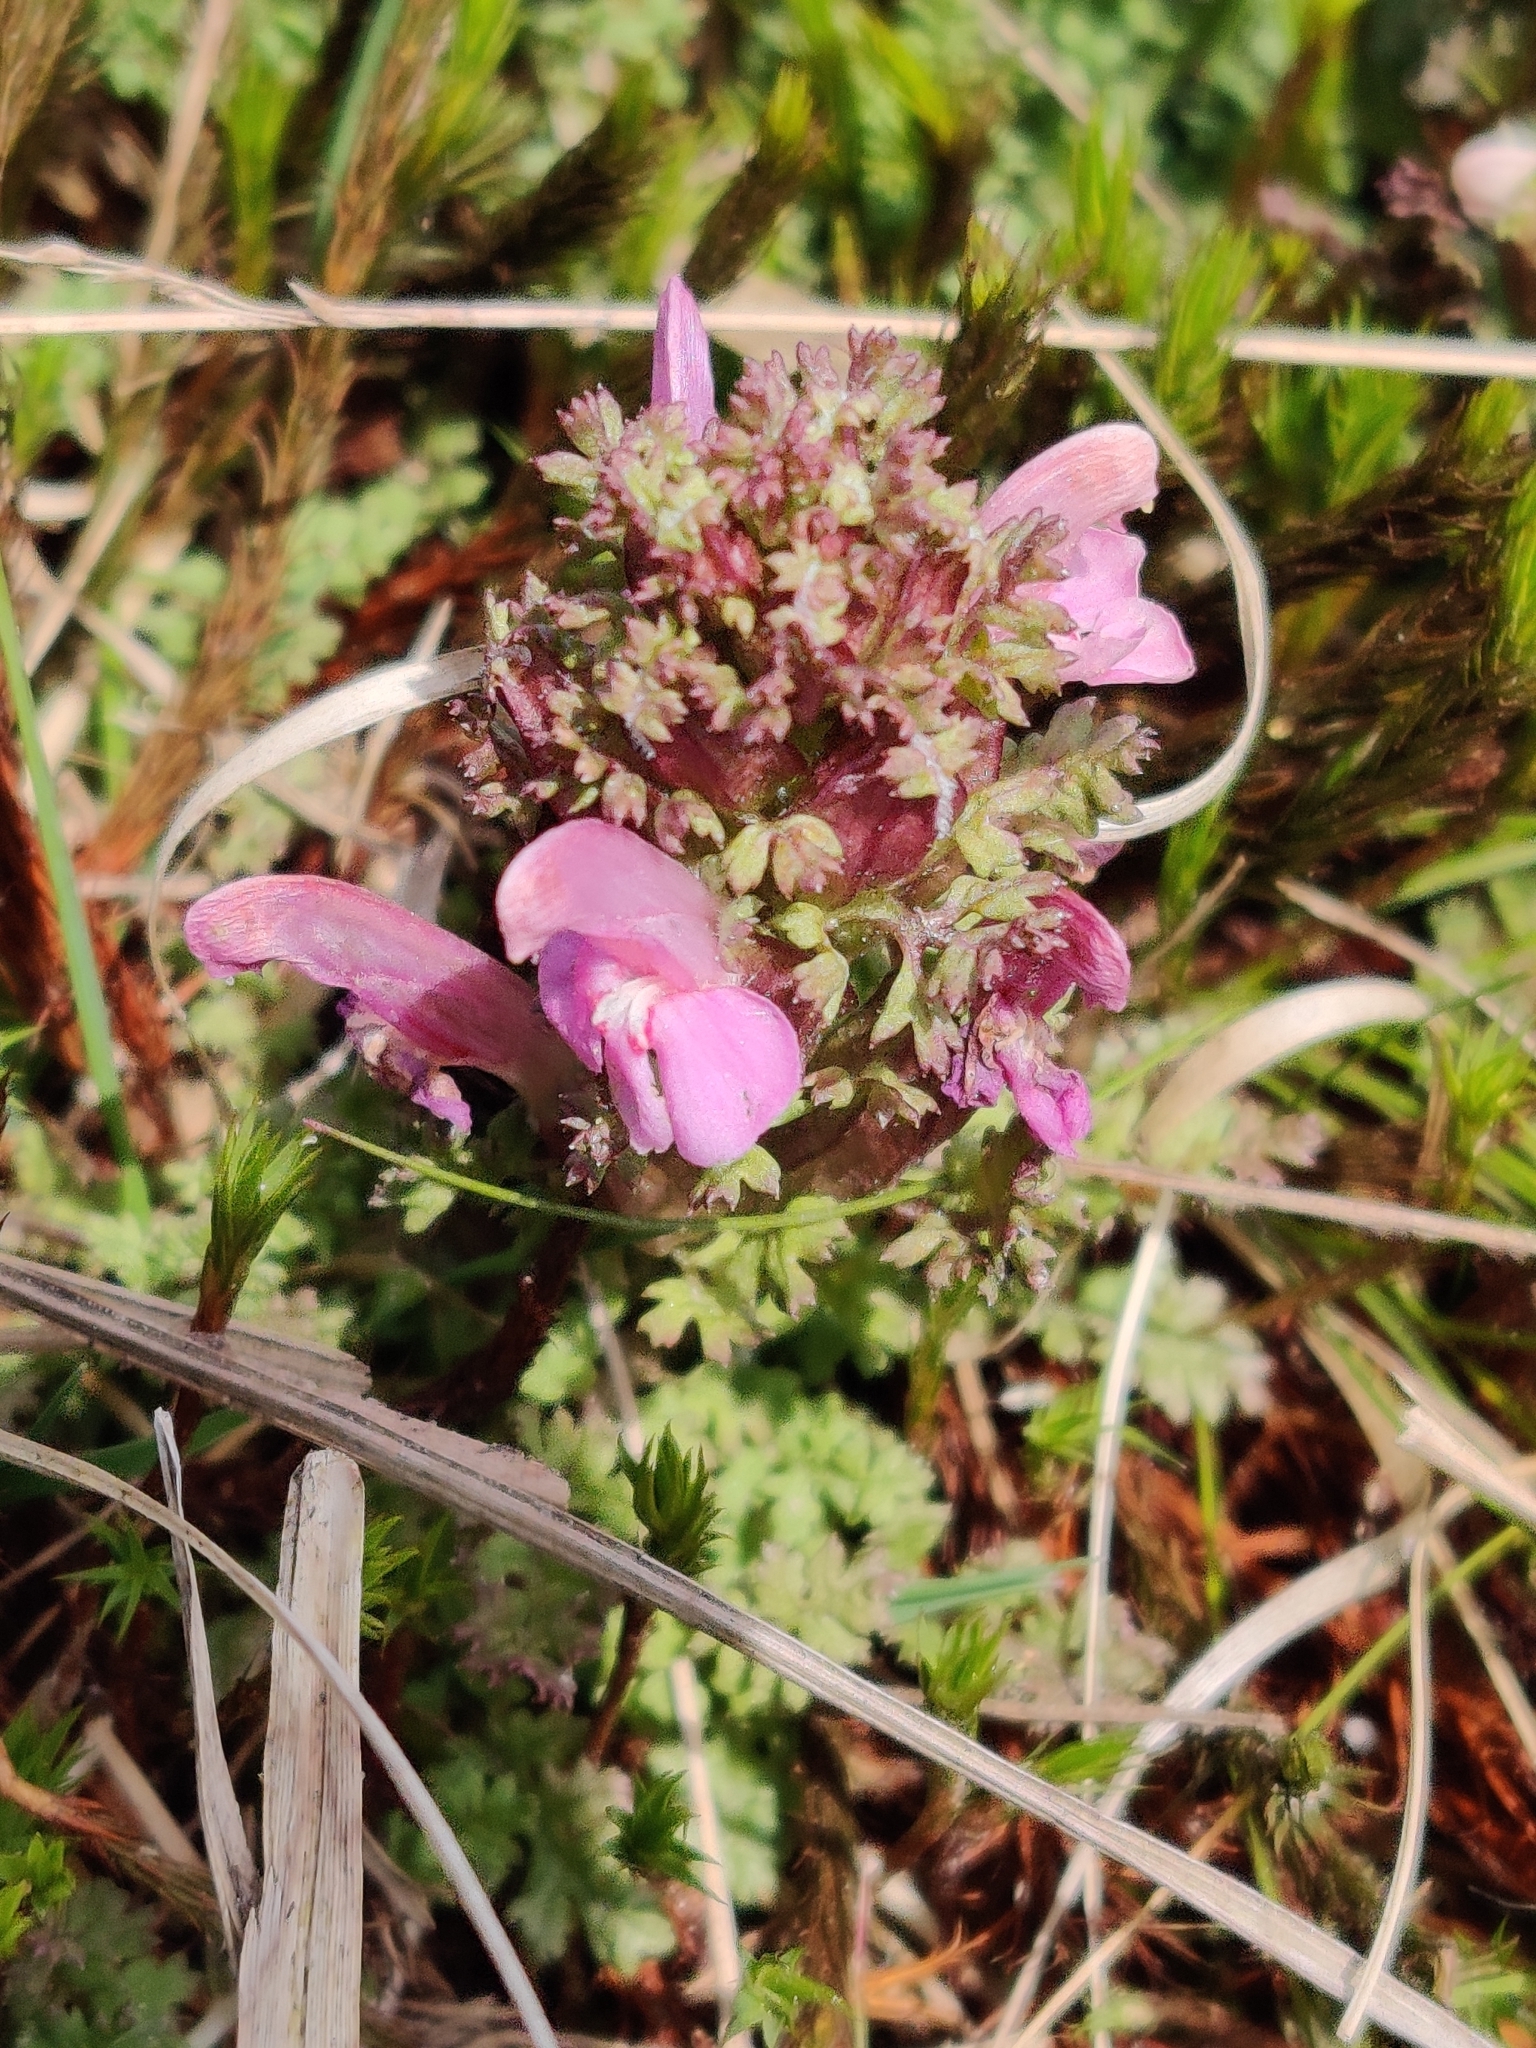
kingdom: Plantae
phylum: Tracheophyta
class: Magnoliopsida
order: Lamiales
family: Orobanchaceae
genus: Pedicularis
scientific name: Pedicularis sylvatica
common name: Lousewort
